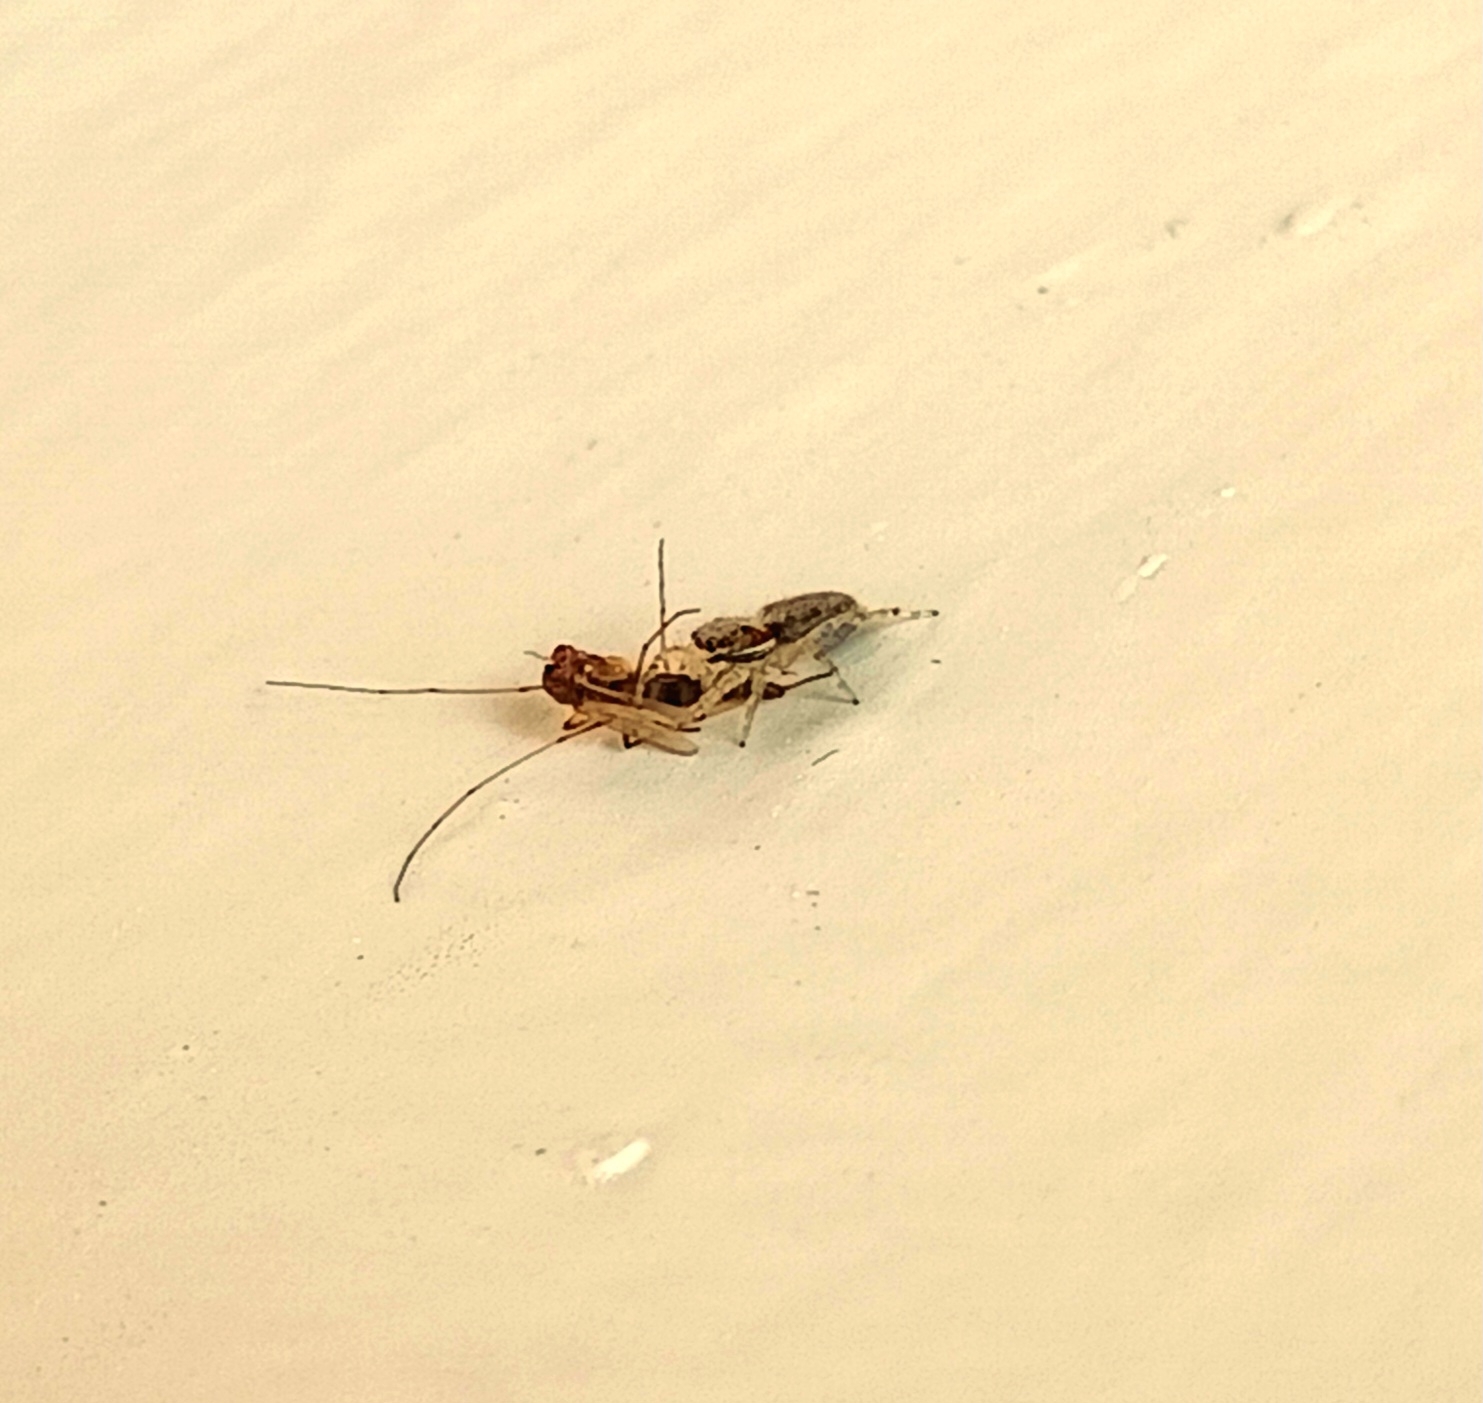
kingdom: Animalia
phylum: Arthropoda
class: Arachnida
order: Araneae
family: Salticidae
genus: Menemerus
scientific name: Menemerus bivittatus
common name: Gray wall jumper
